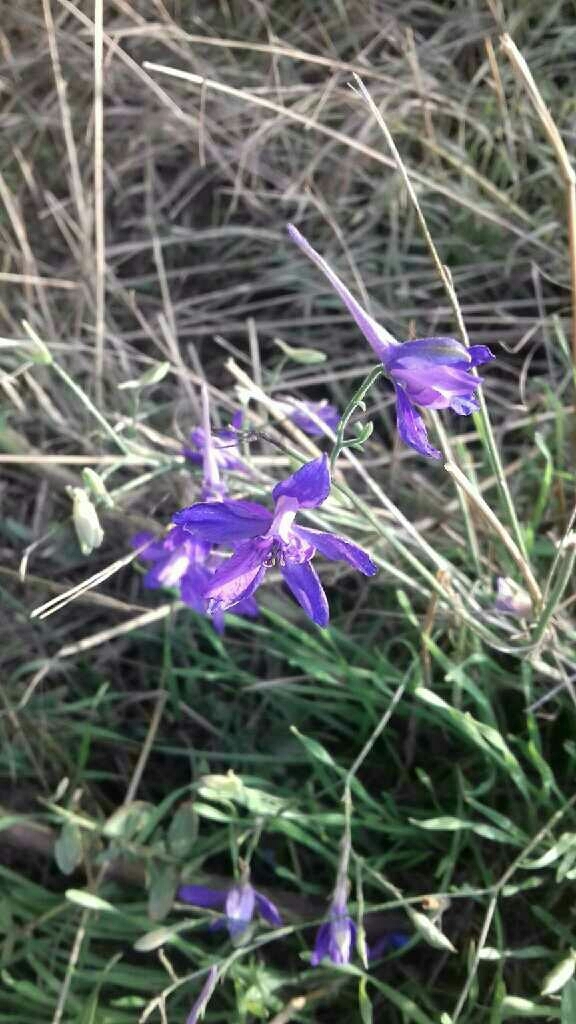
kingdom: Plantae
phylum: Tracheophyta
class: Magnoliopsida
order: Ranunculales
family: Ranunculaceae
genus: Delphinium
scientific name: Delphinium consolida
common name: Branching larkspur
